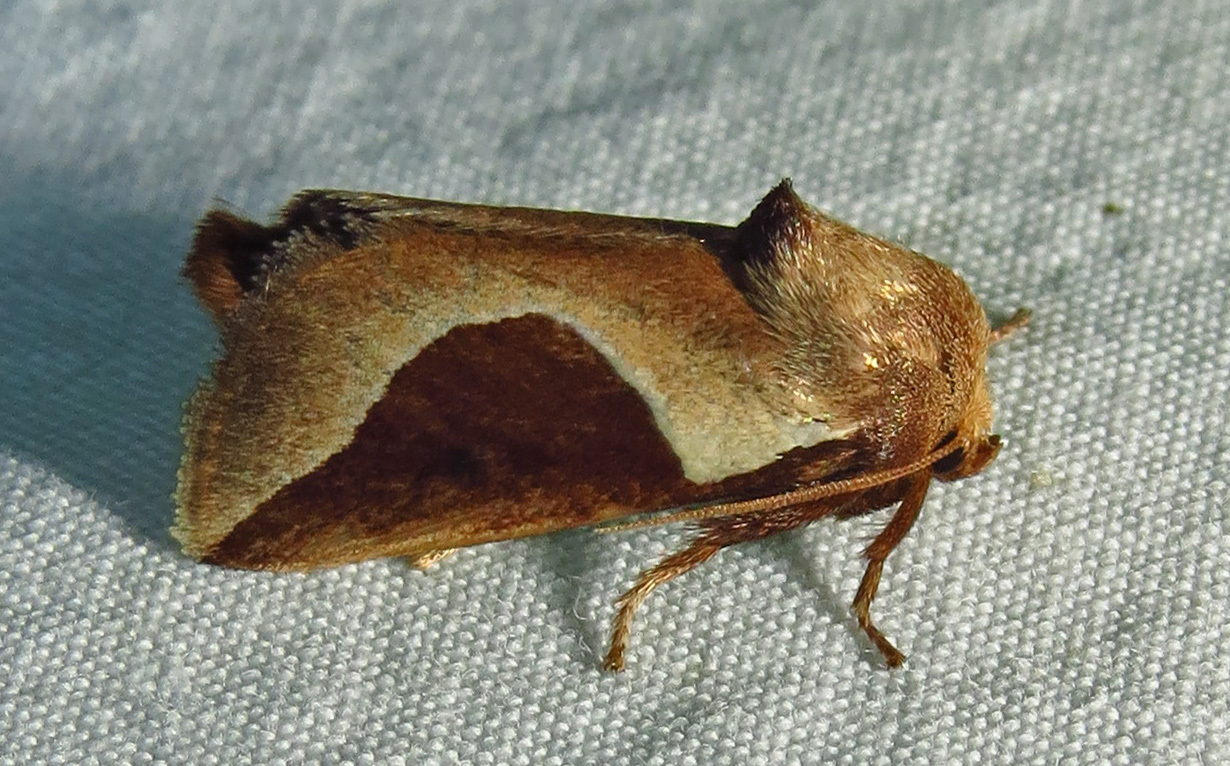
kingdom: Animalia
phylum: Arthropoda
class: Insecta
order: Lepidoptera
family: Limacodidae
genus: Prolimacodes
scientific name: Prolimacodes badia
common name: Skiff moth
